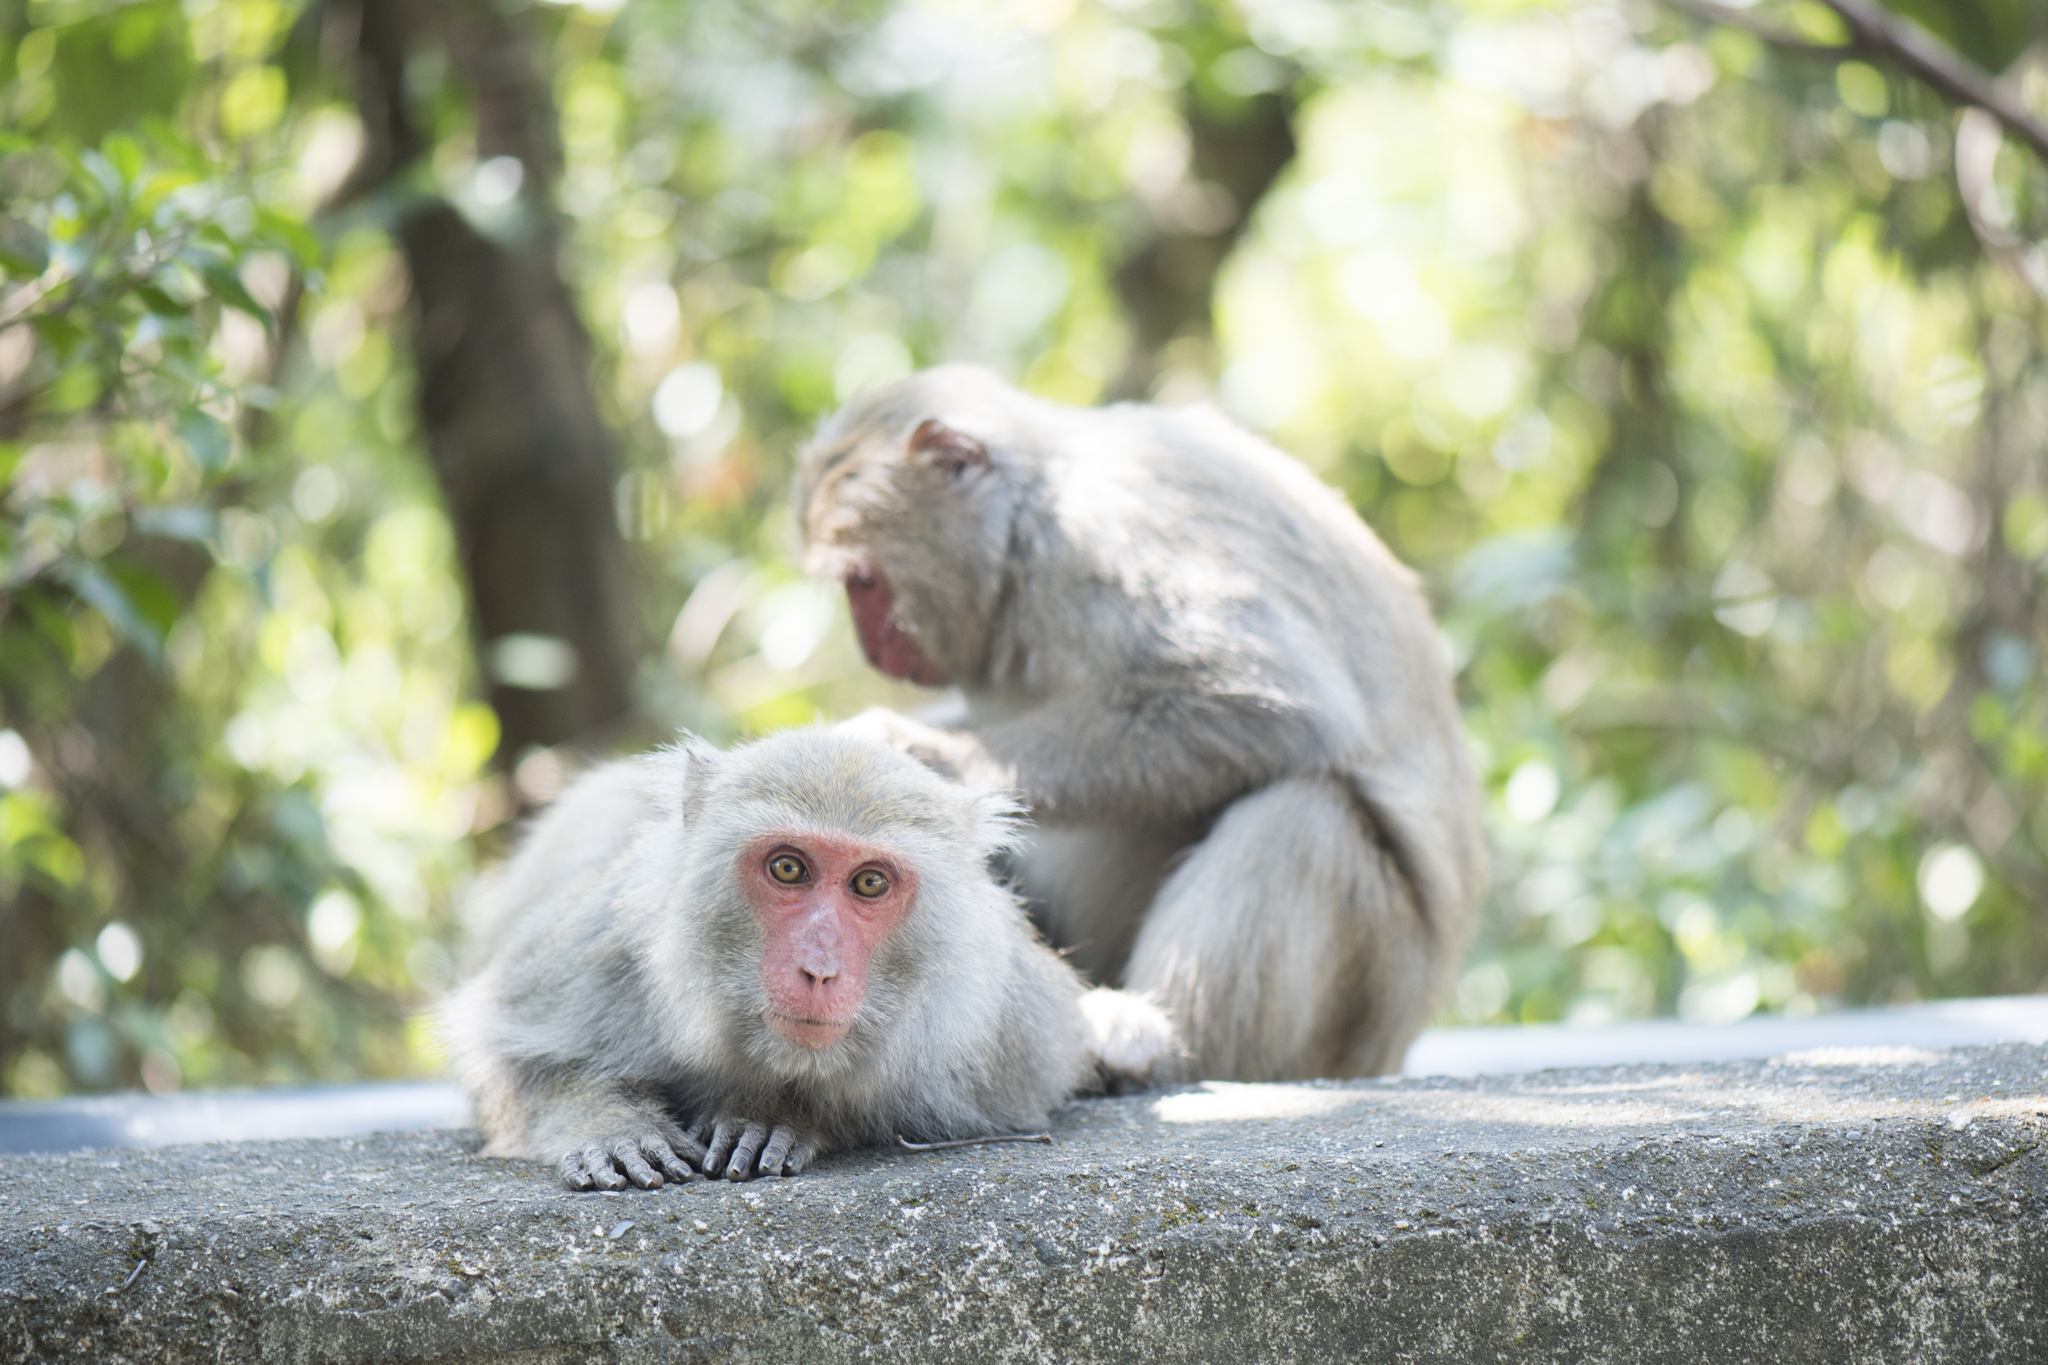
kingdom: Animalia
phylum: Chordata
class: Mammalia
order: Primates
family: Cercopithecidae
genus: Macaca
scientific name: Macaca cyclopis
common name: Formosan rock macaque
